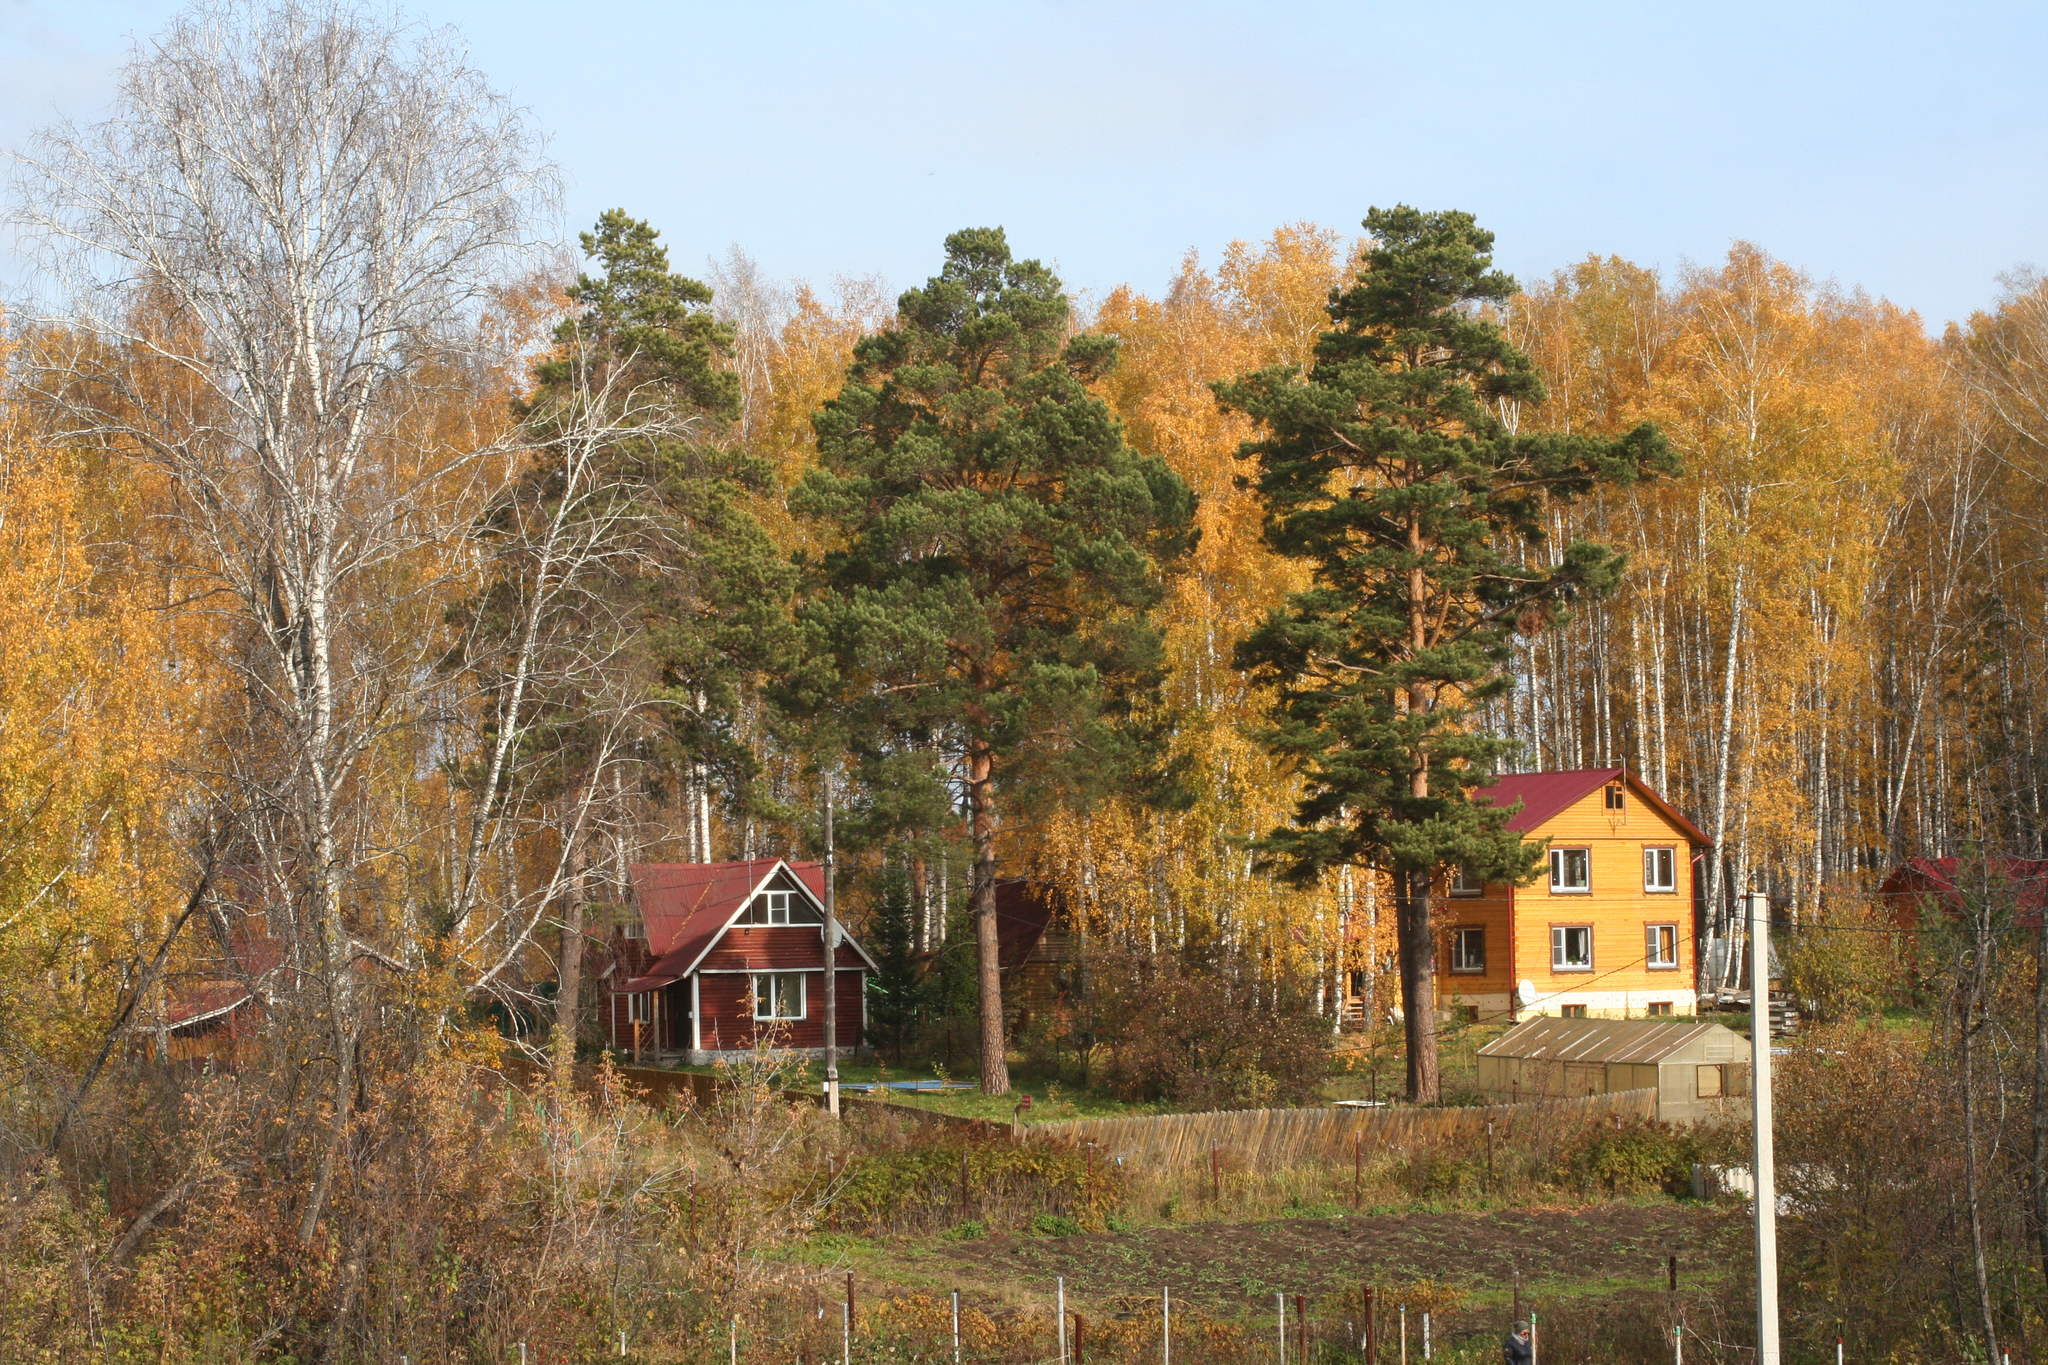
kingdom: Plantae
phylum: Tracheophyta
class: Pinopsida
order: Pinales
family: Pinaceae
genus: Pinus
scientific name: Pinus sylvestris
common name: Scots pine
